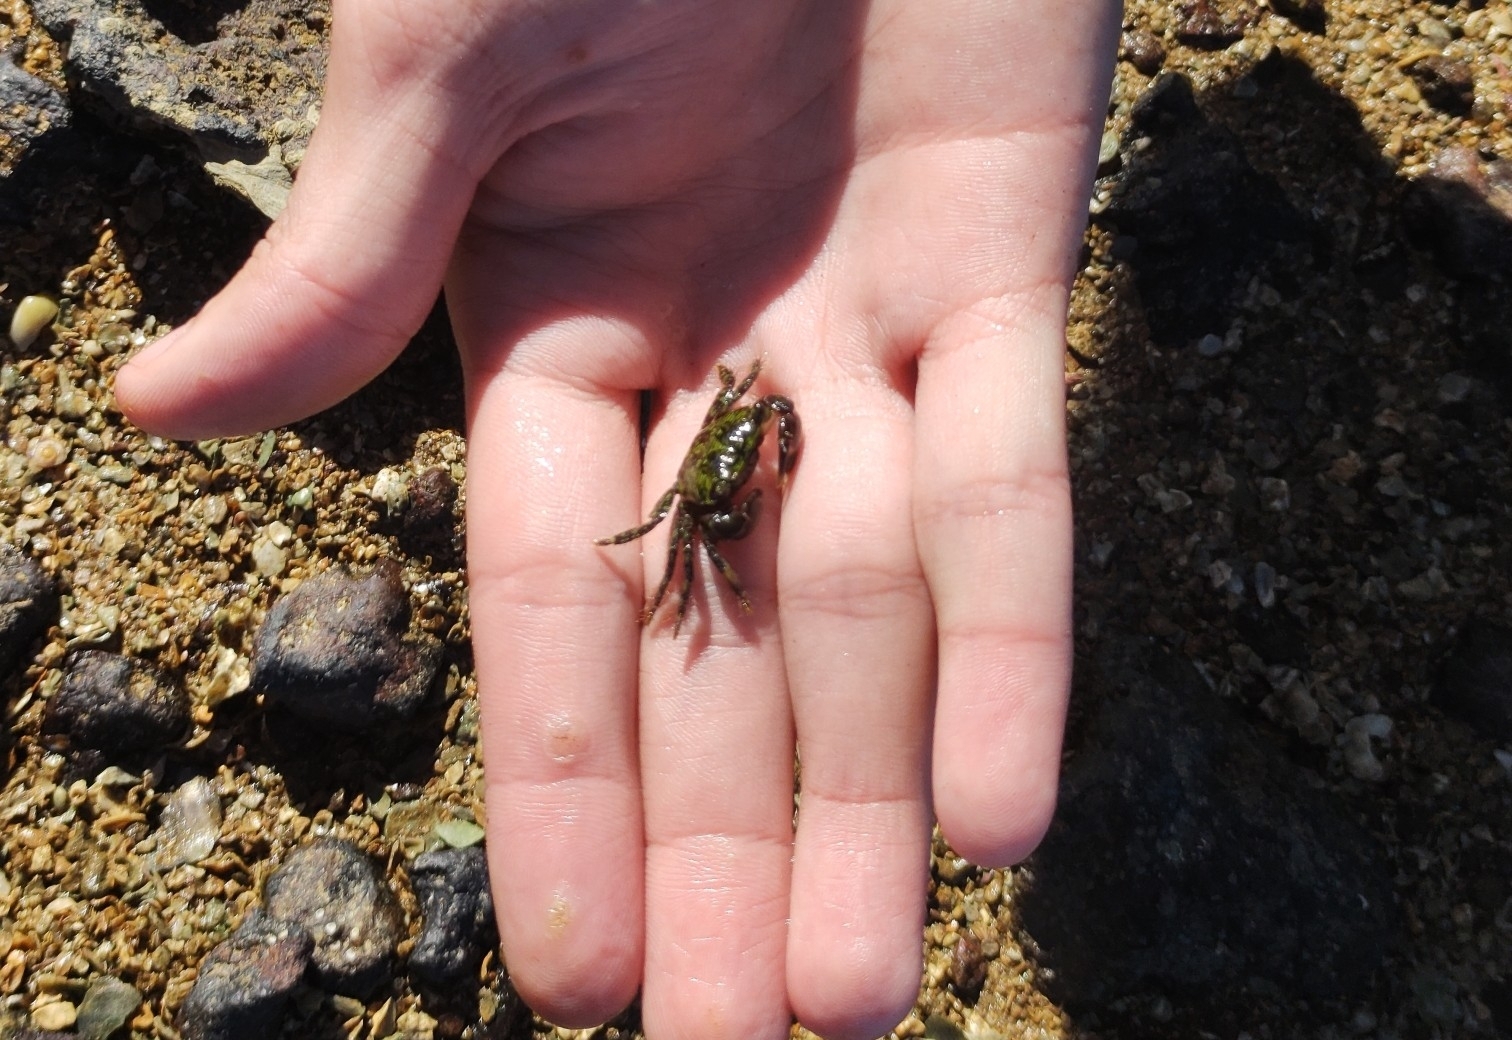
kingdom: Animalia
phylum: Arthropoda
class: Malacostraca
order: Decapoda
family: Grapsidae
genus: Pachygrapsus
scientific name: Pachygrapsus transversus
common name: Mottled shore crab
